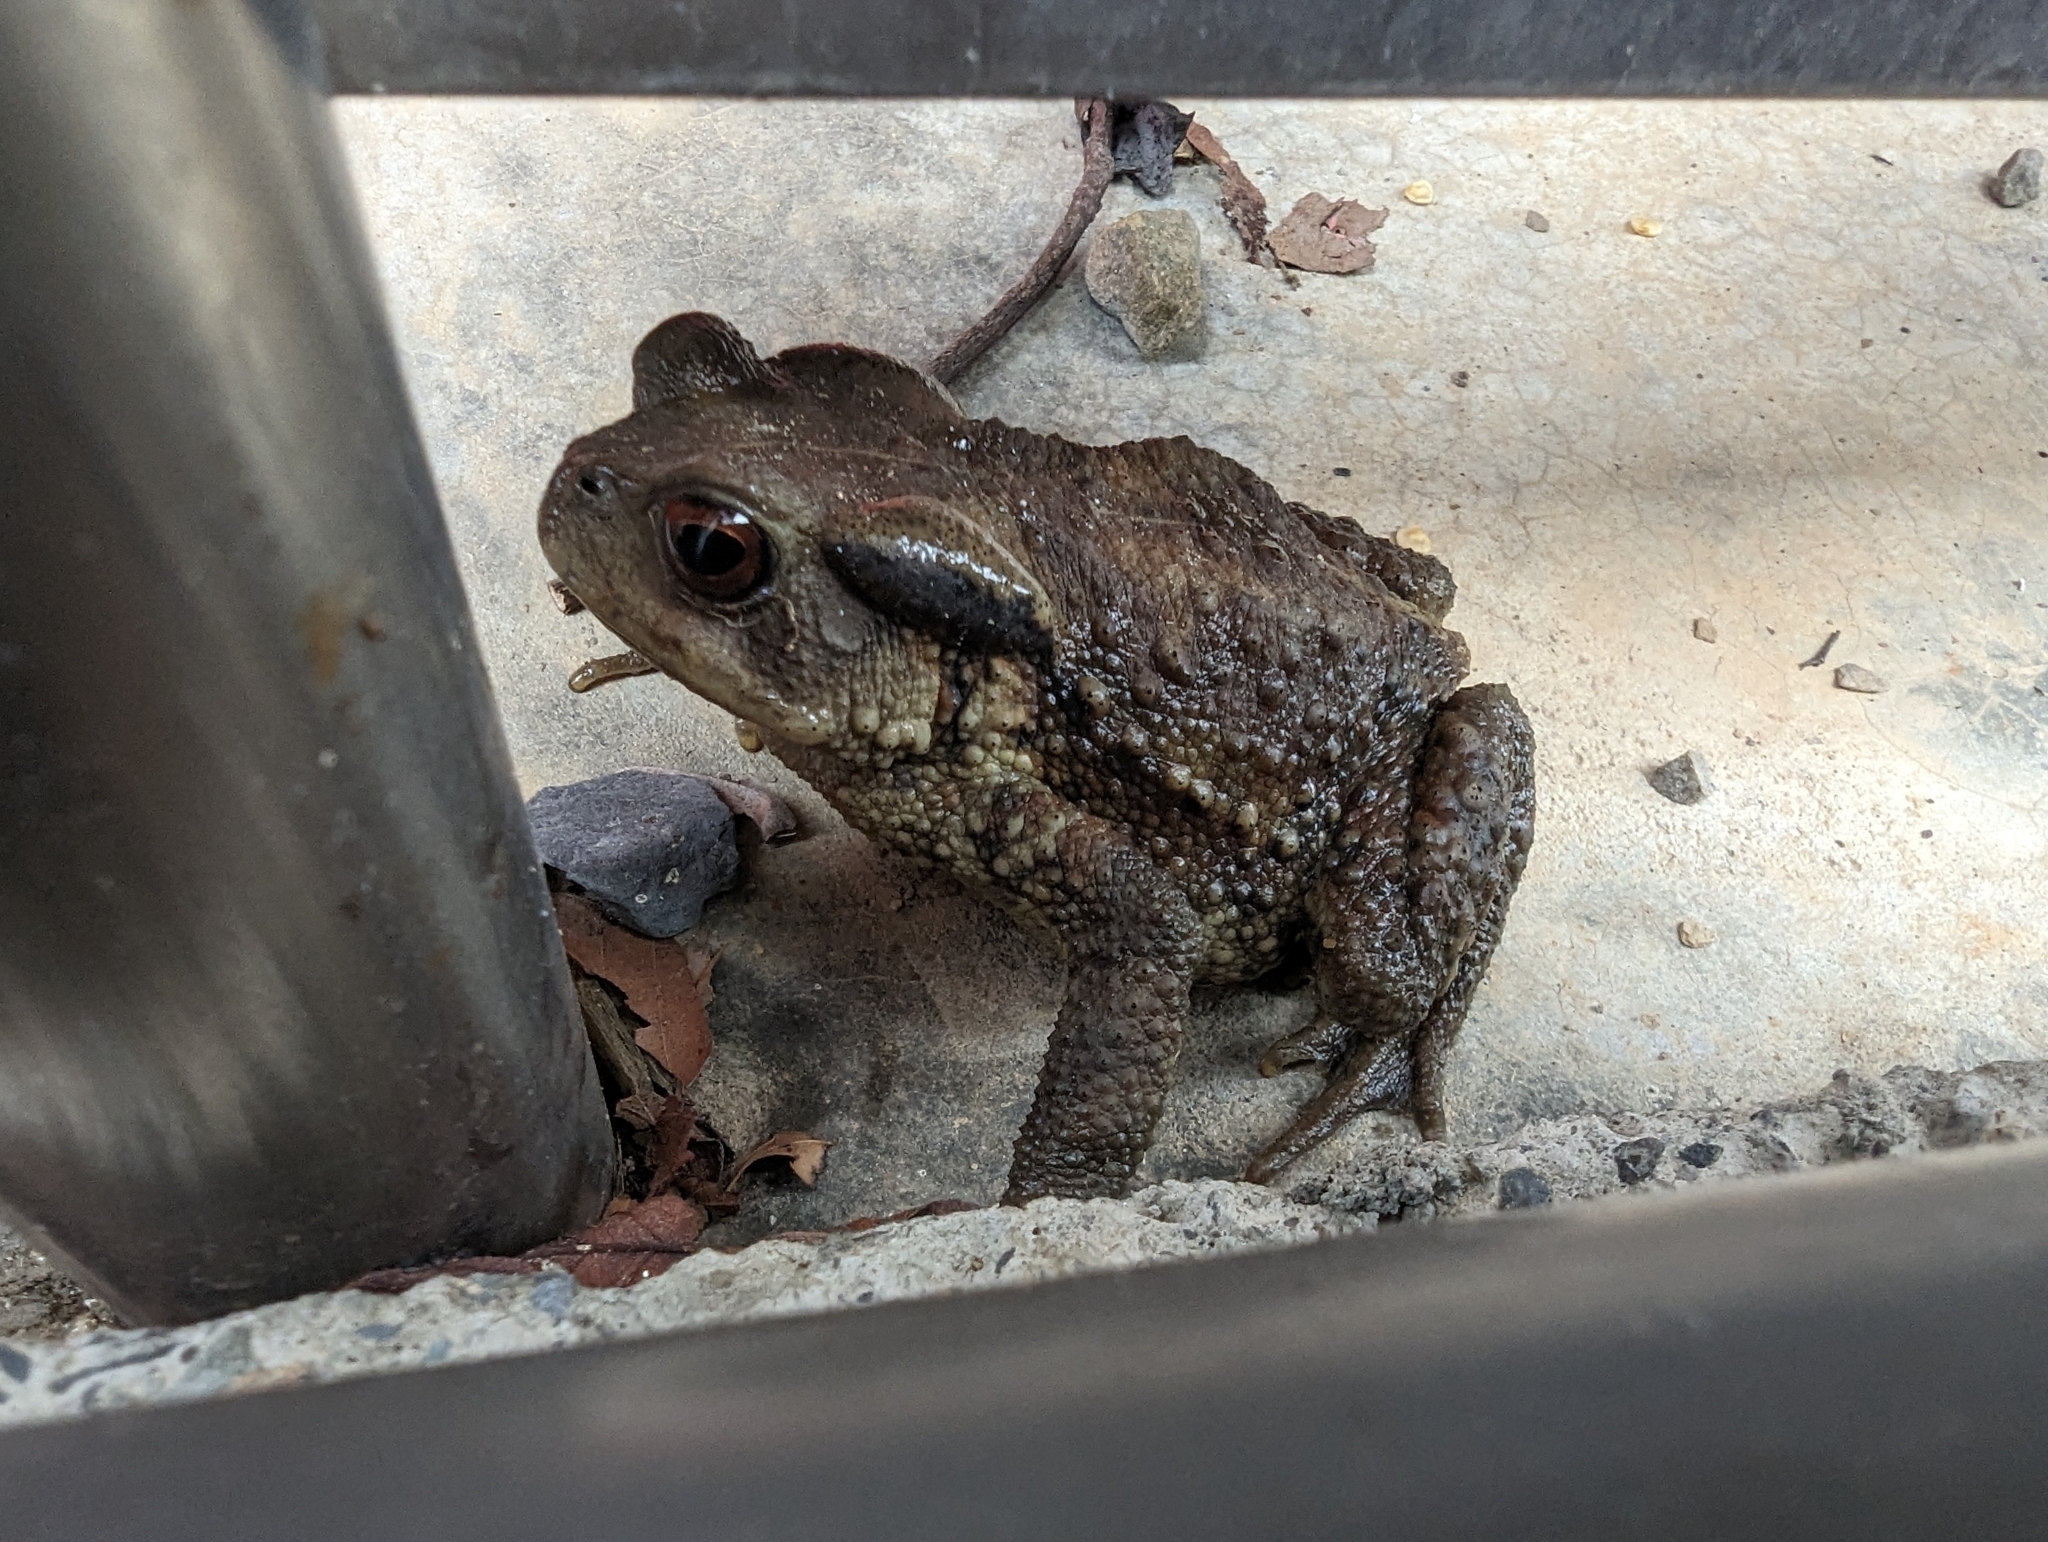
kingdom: Animalia
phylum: Chordata
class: Amphibia
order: Anura
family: Bufonidae
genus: Bufo
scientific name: Bufo bankorensis
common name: Bankor toad
